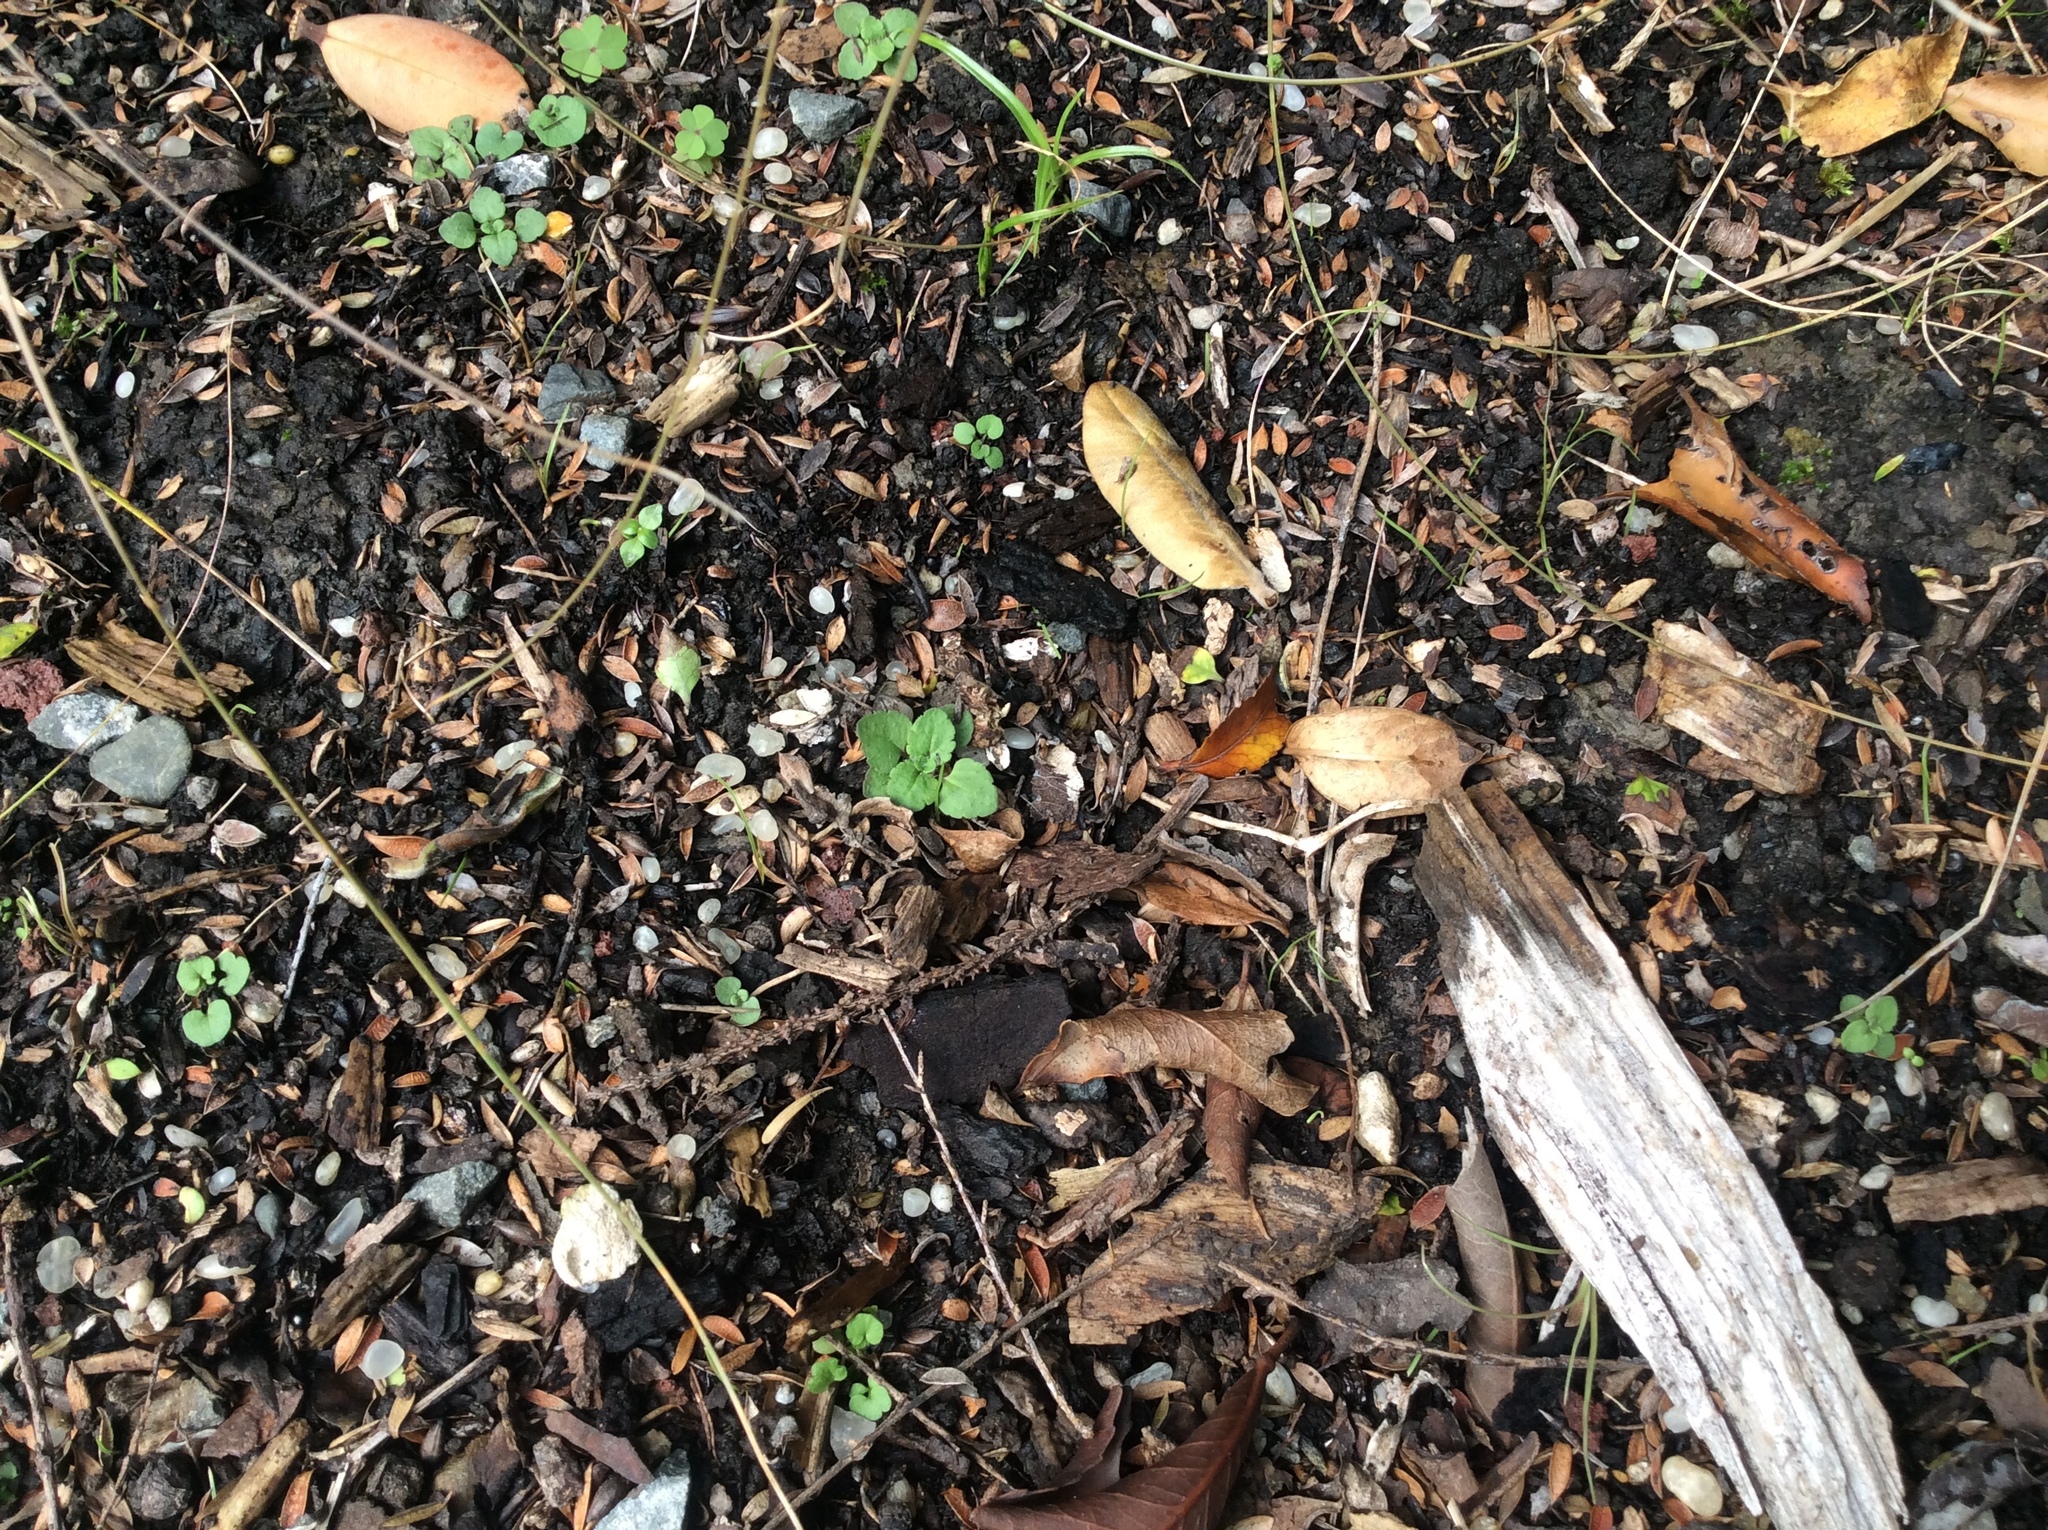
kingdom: Plantae
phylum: Tracheophyta
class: Magnoliopsida
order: Lamiales
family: Plantaginaceae
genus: Veronica
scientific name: Veronica persica
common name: Common field-speedwell
